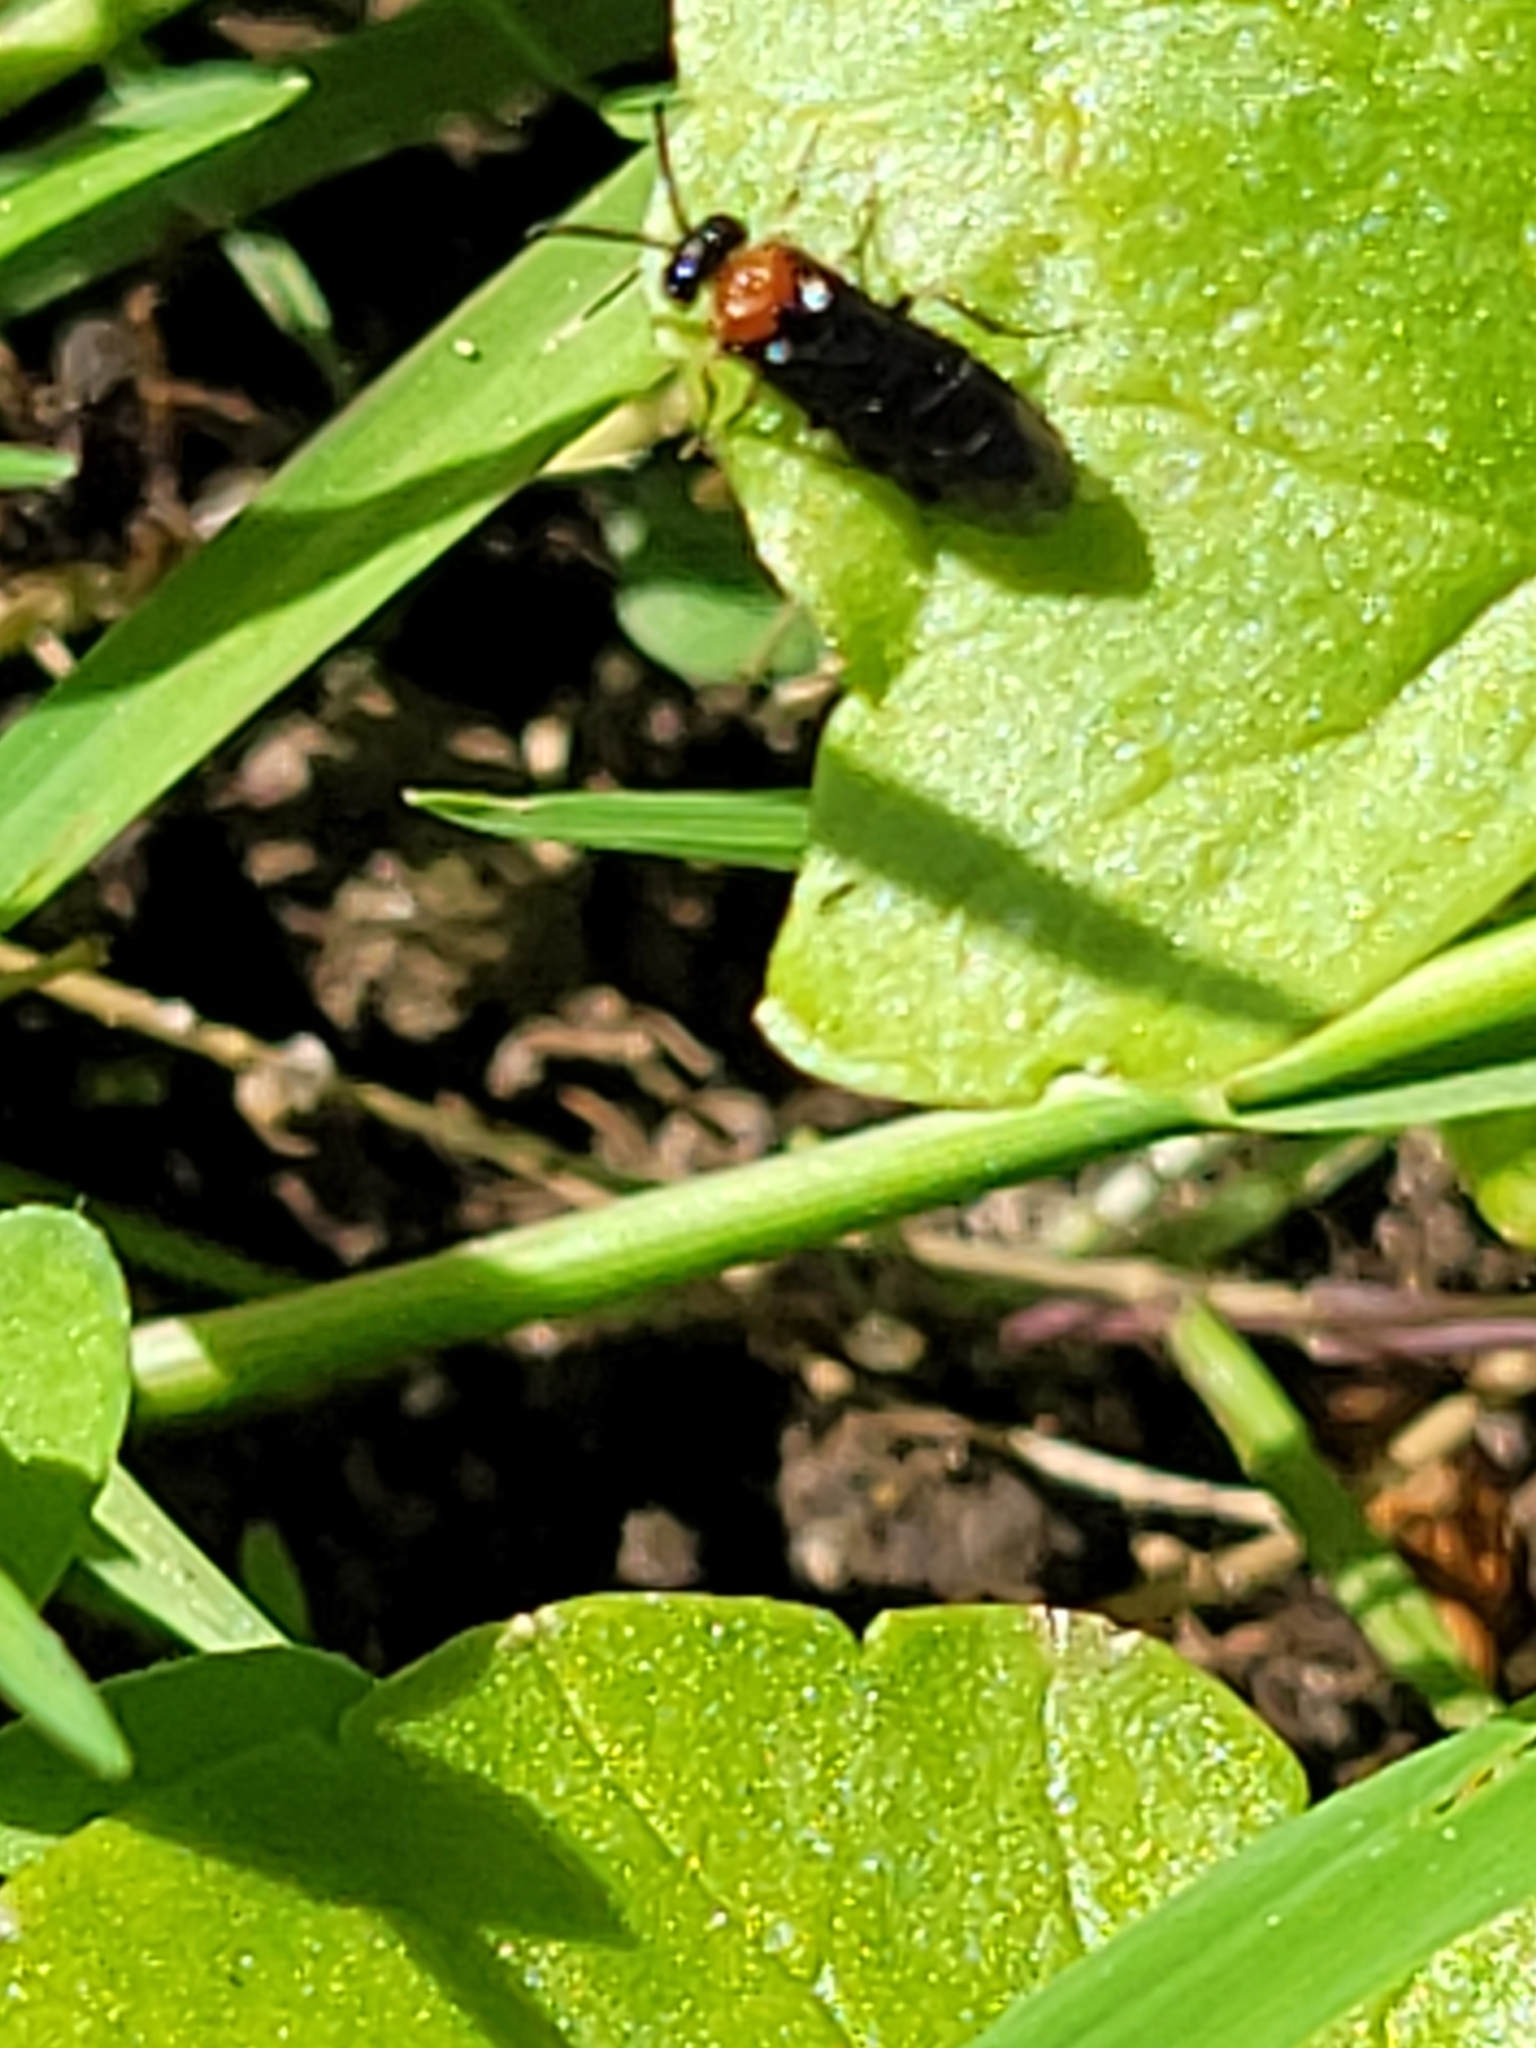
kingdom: Animalia
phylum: Arthropoda
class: Insecta
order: Hymenoptera
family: Tenthredinidae
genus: Eutomostethus
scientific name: Eutomostethus ephippium
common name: Tenthredid wasp
